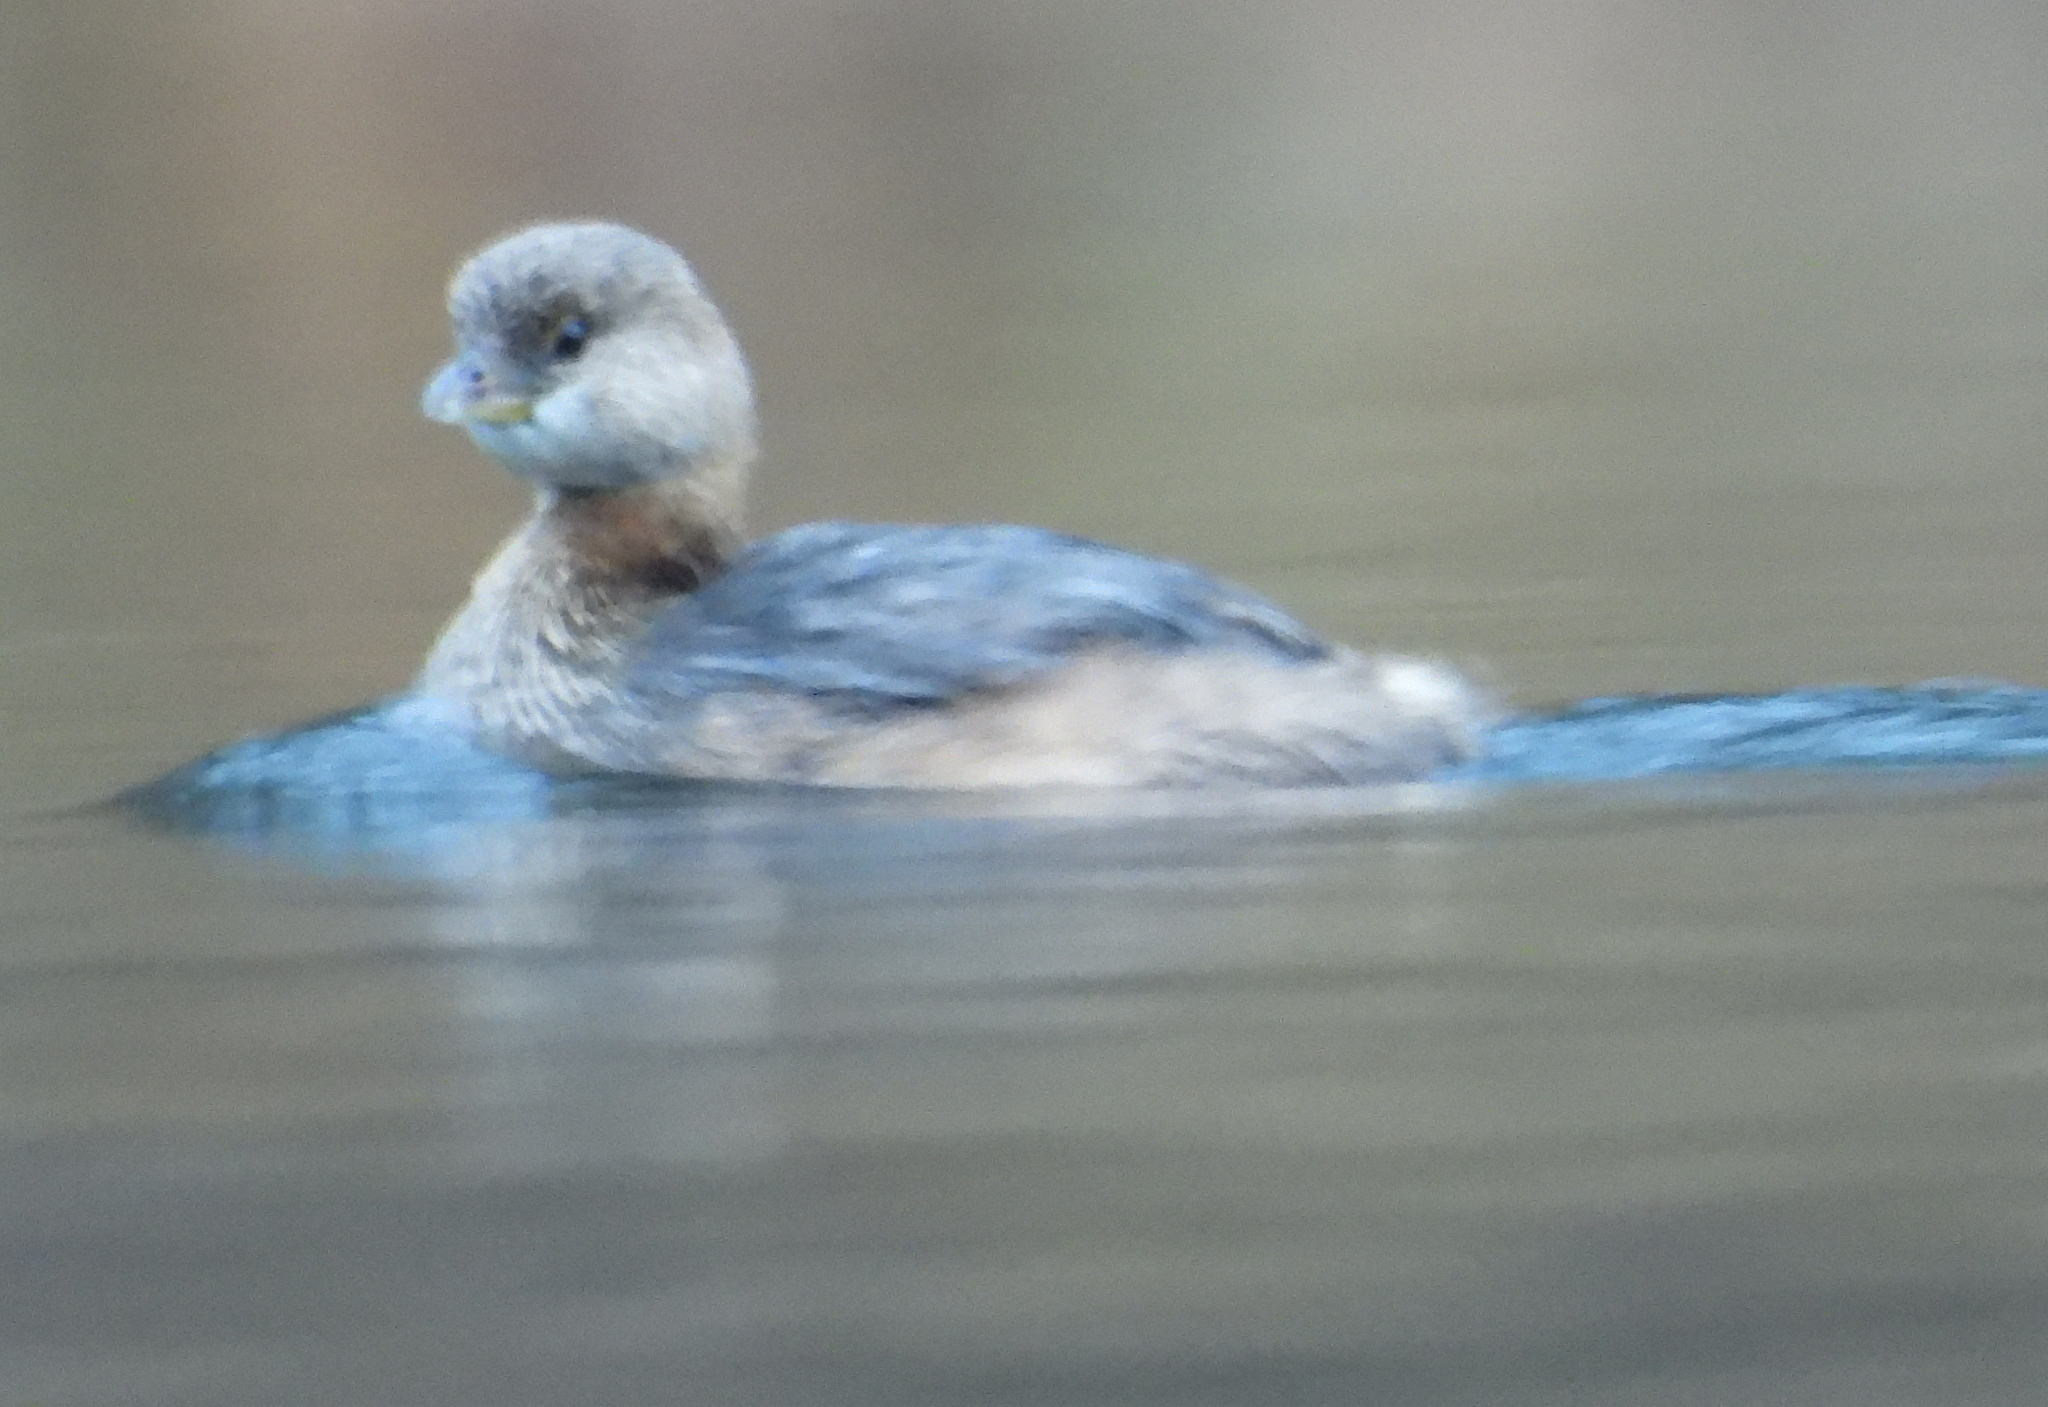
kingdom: Animalia
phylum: Chordata
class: Aves
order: Podicipediformes
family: Podicipedidae
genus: Podilymbus
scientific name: Podilymbus podiceps
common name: Pied-billed grebe
